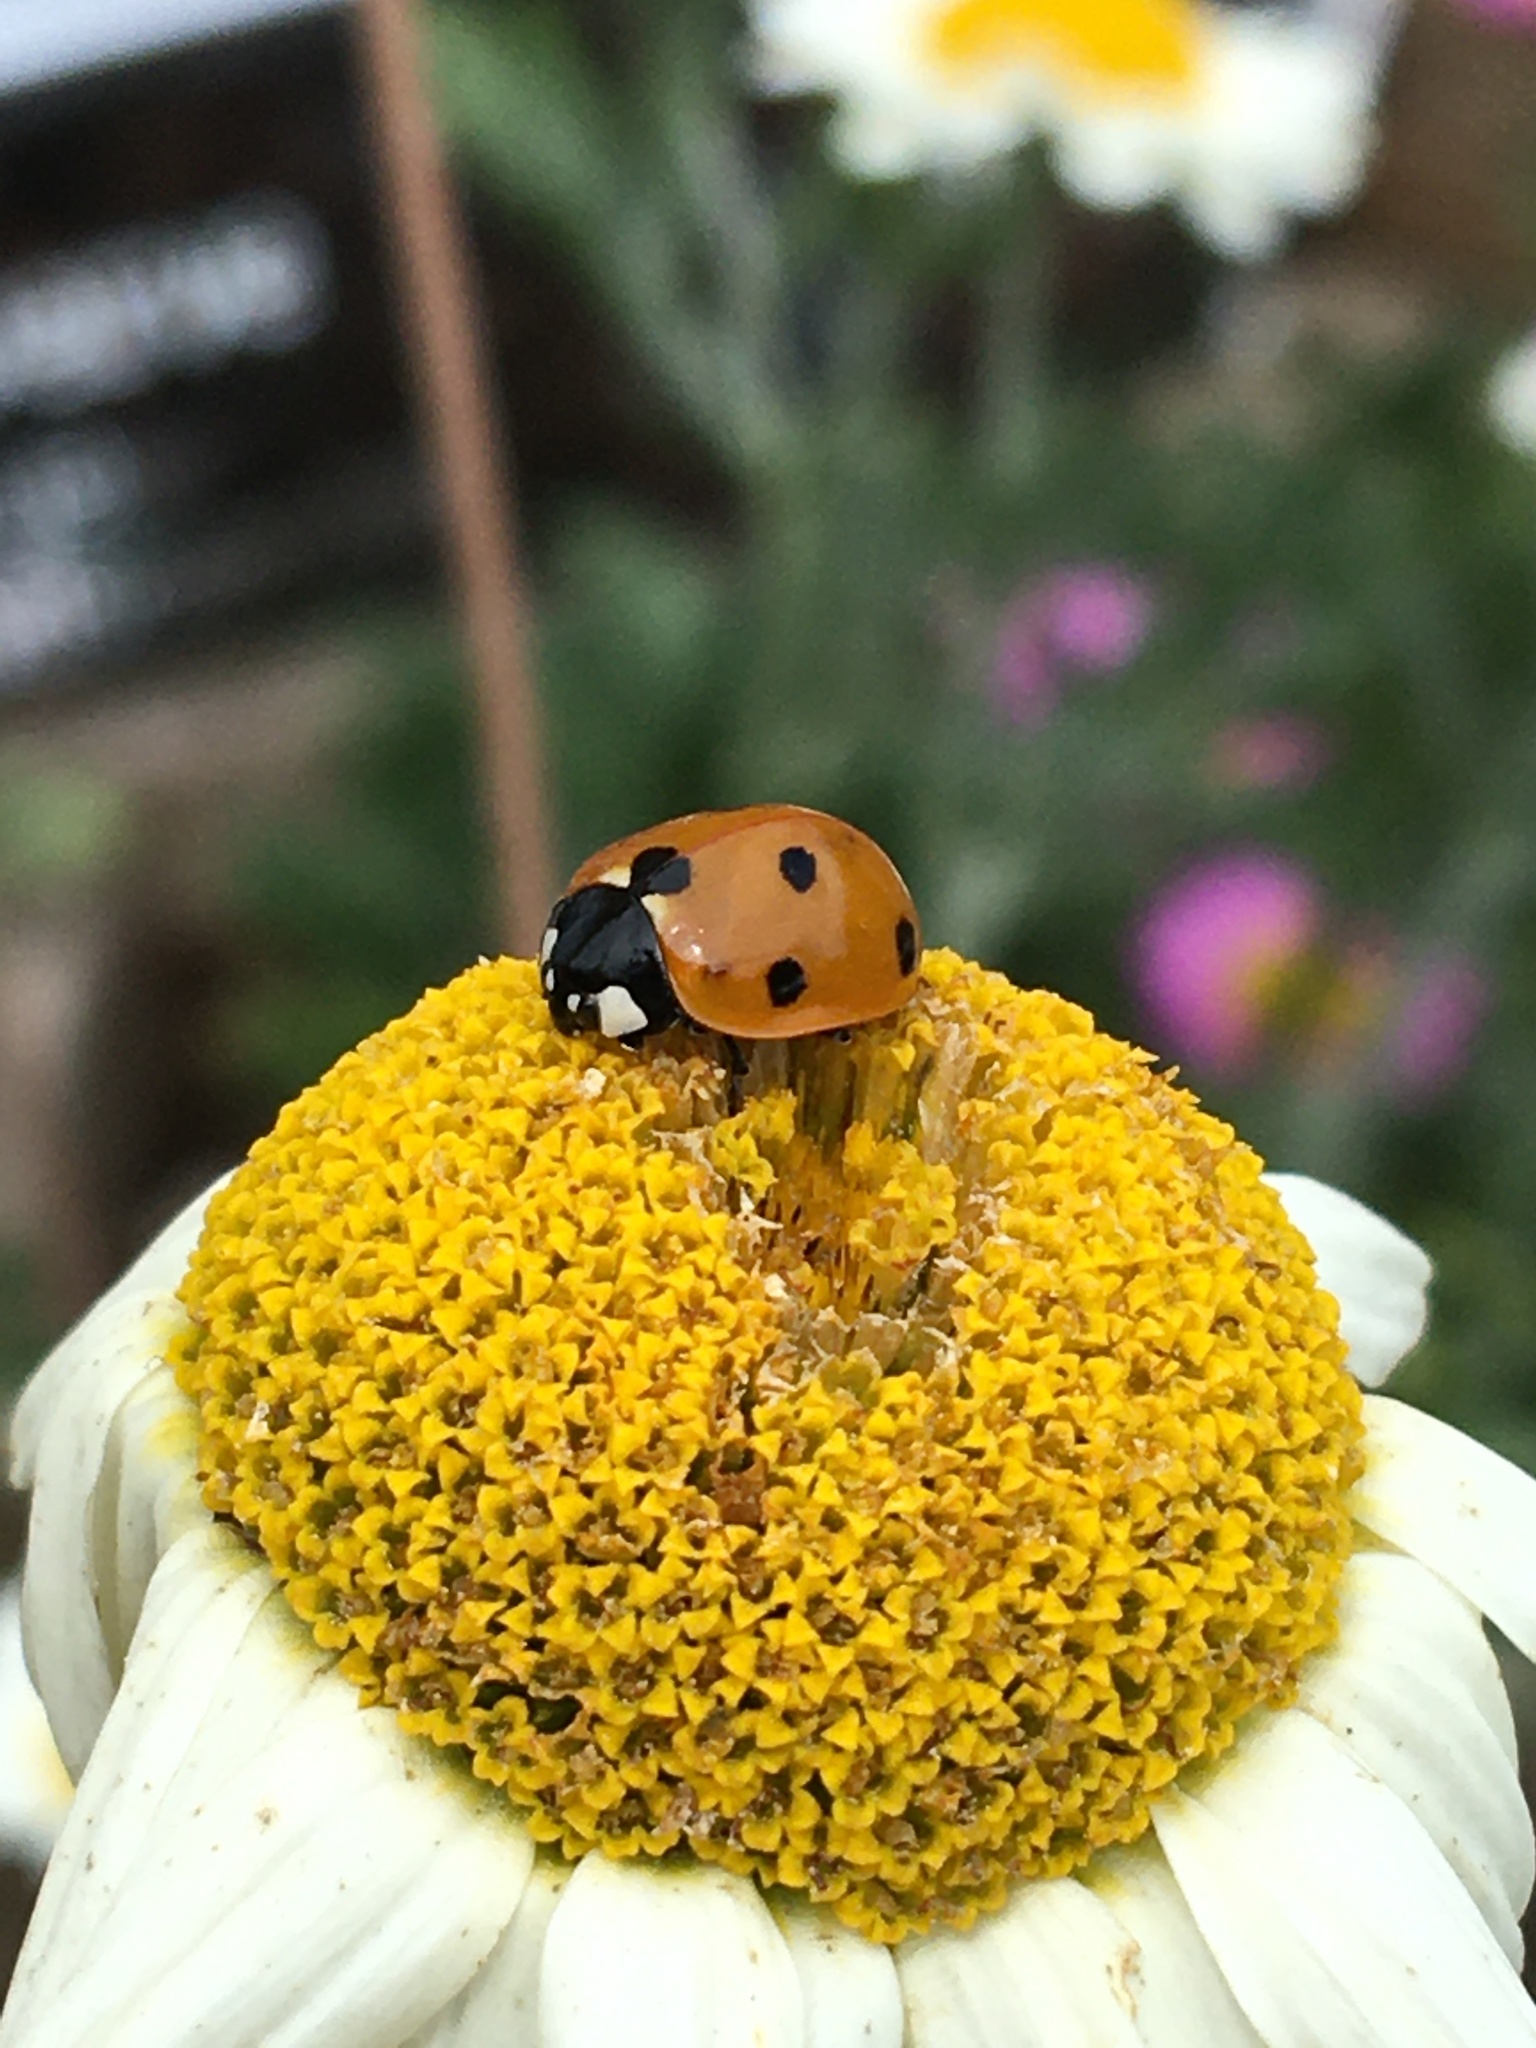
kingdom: Animalia
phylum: Arthropoda
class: Insecta
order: Coleoptera
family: Coccinellidae
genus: Coccinella
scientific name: Coccinella septempunctata
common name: Sevenspotted lady beetle
